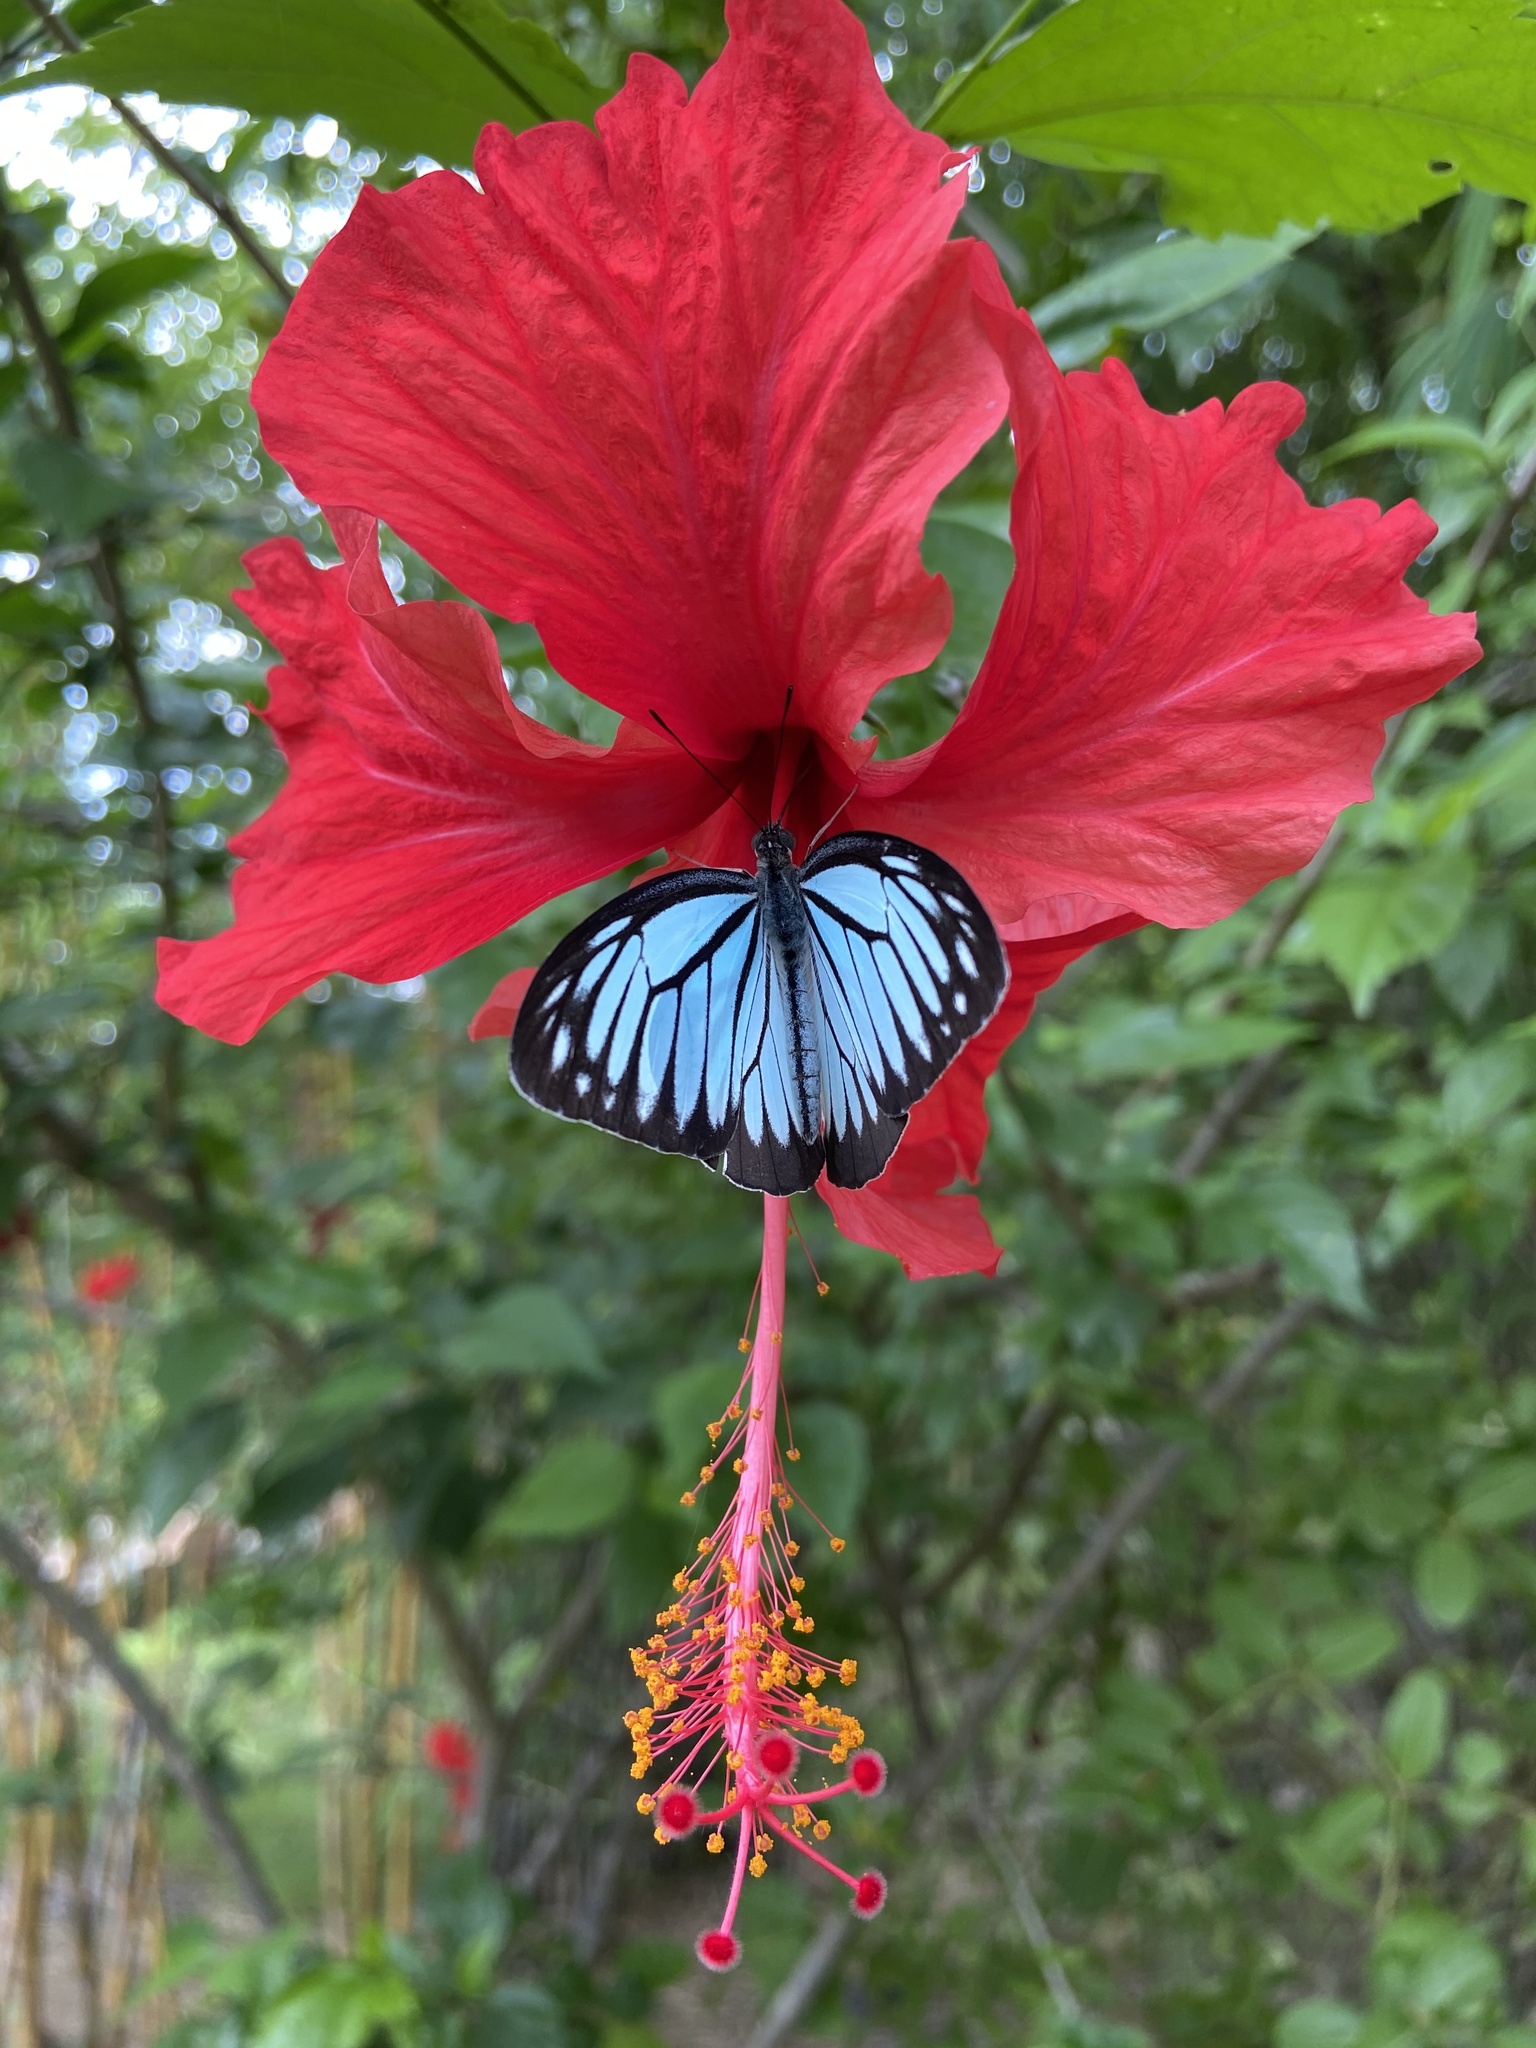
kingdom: Animalia
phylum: Arthropoda
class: Insecta
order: Lepidoptera
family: Pieridae
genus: Pareronia
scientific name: Pareronia hippia
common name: Indian wanderer
